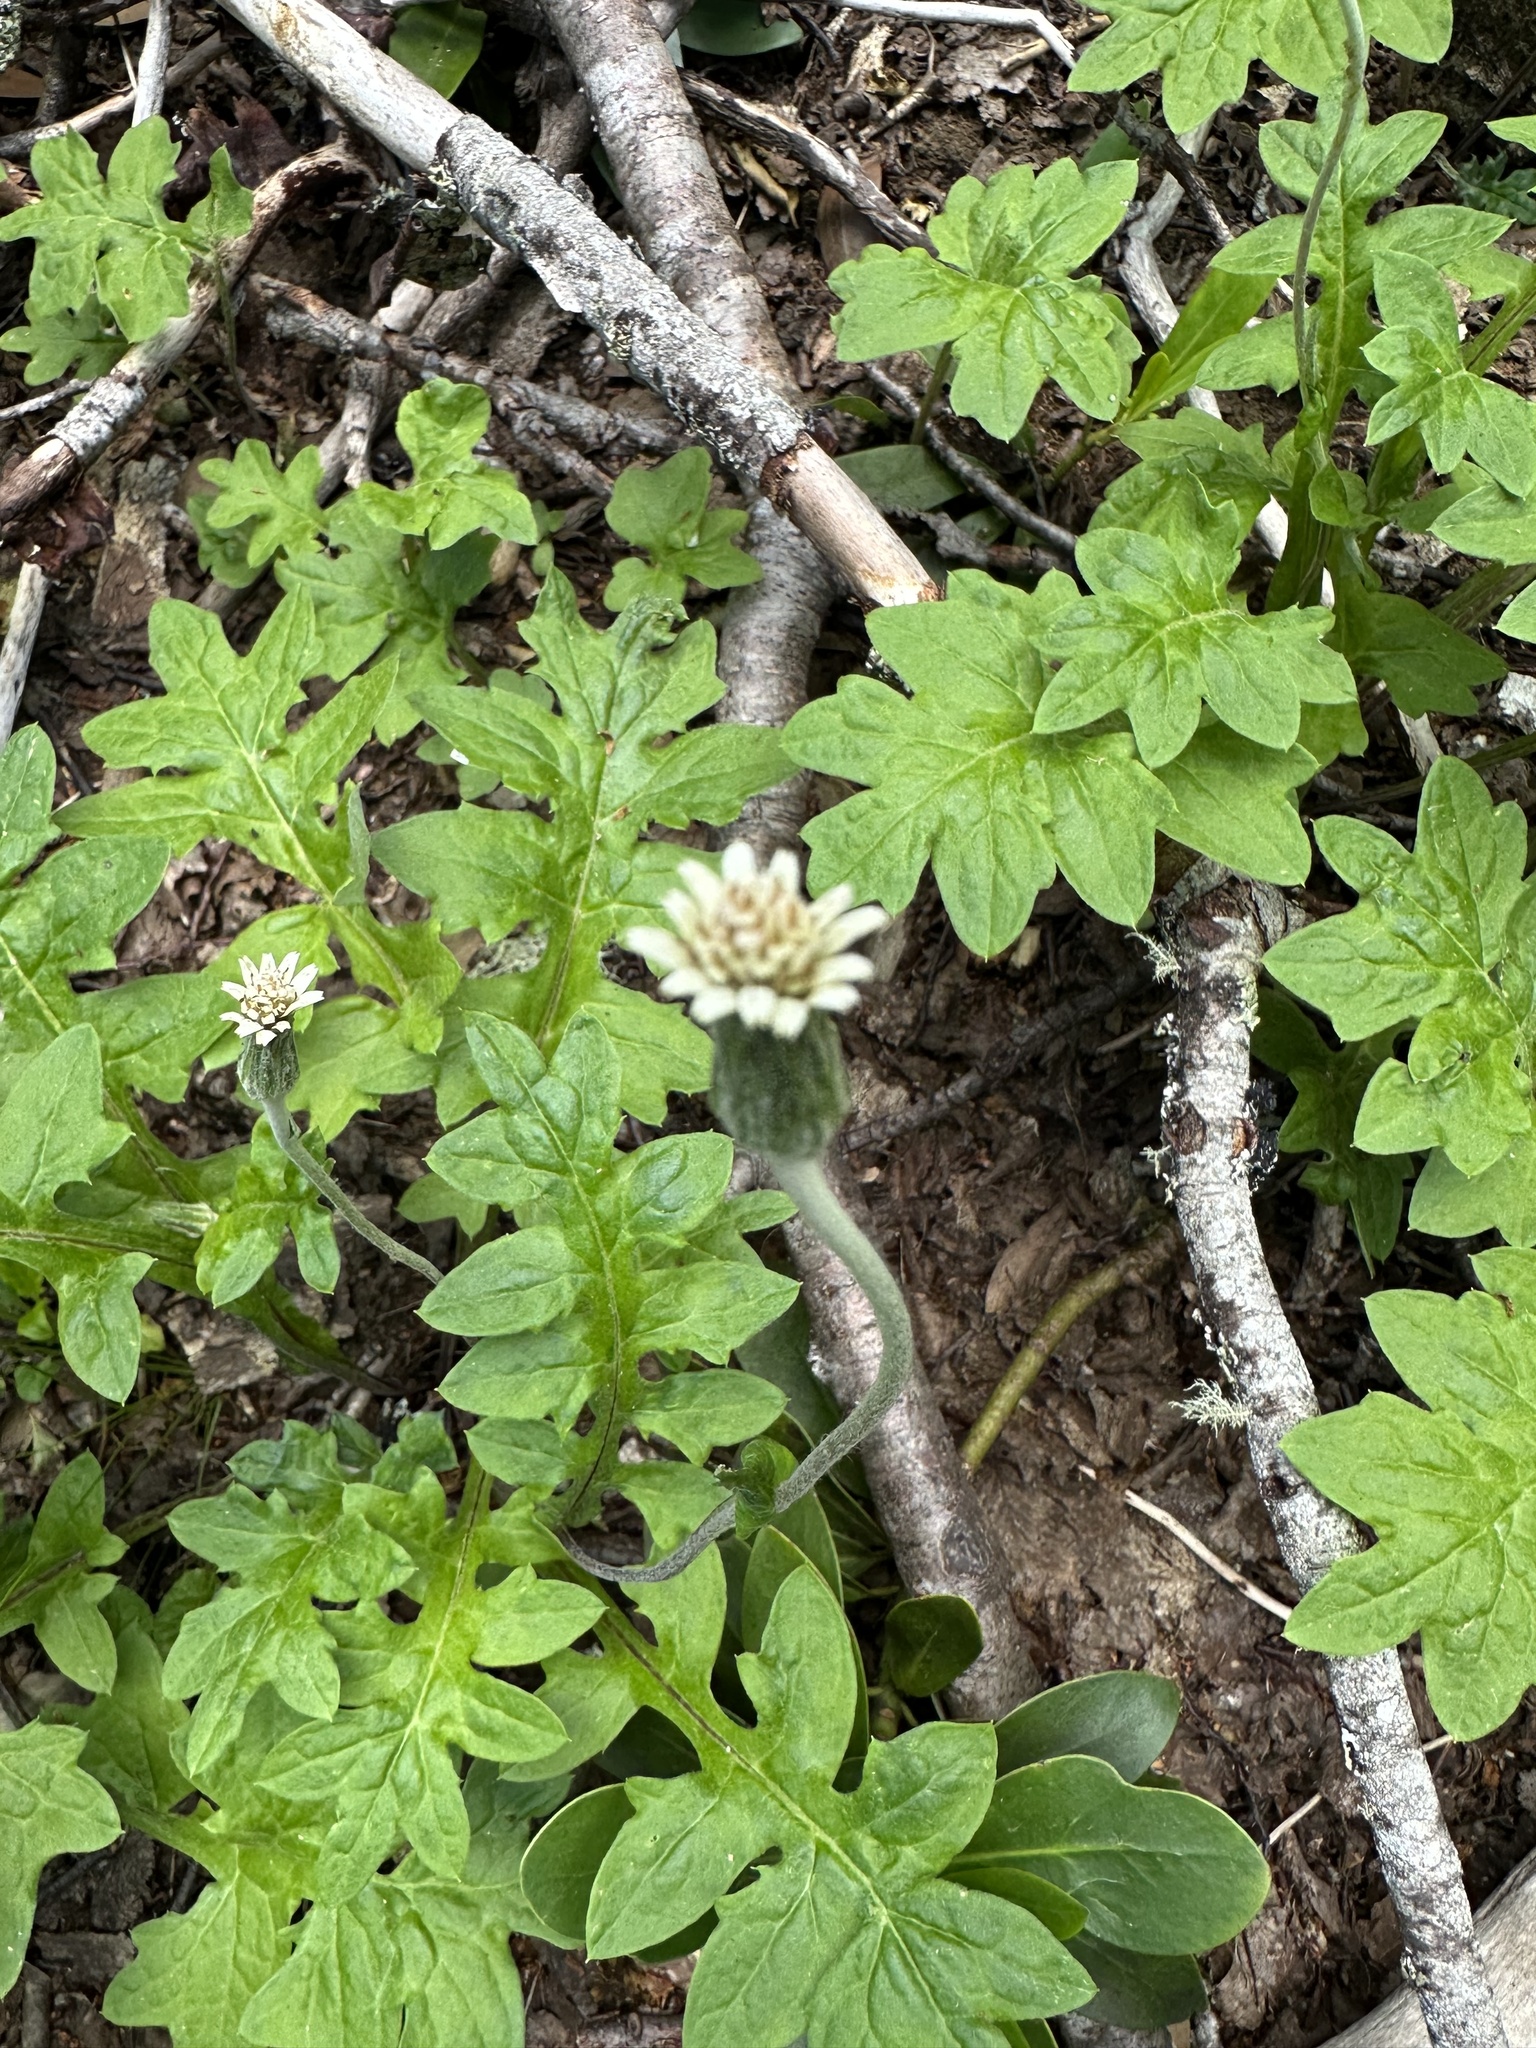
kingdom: Plantae
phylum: Tracheophyta
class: Magnoliopsida
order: Asterales
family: Asteraceae
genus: Macrachaenium
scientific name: Macrachaenium gracile
